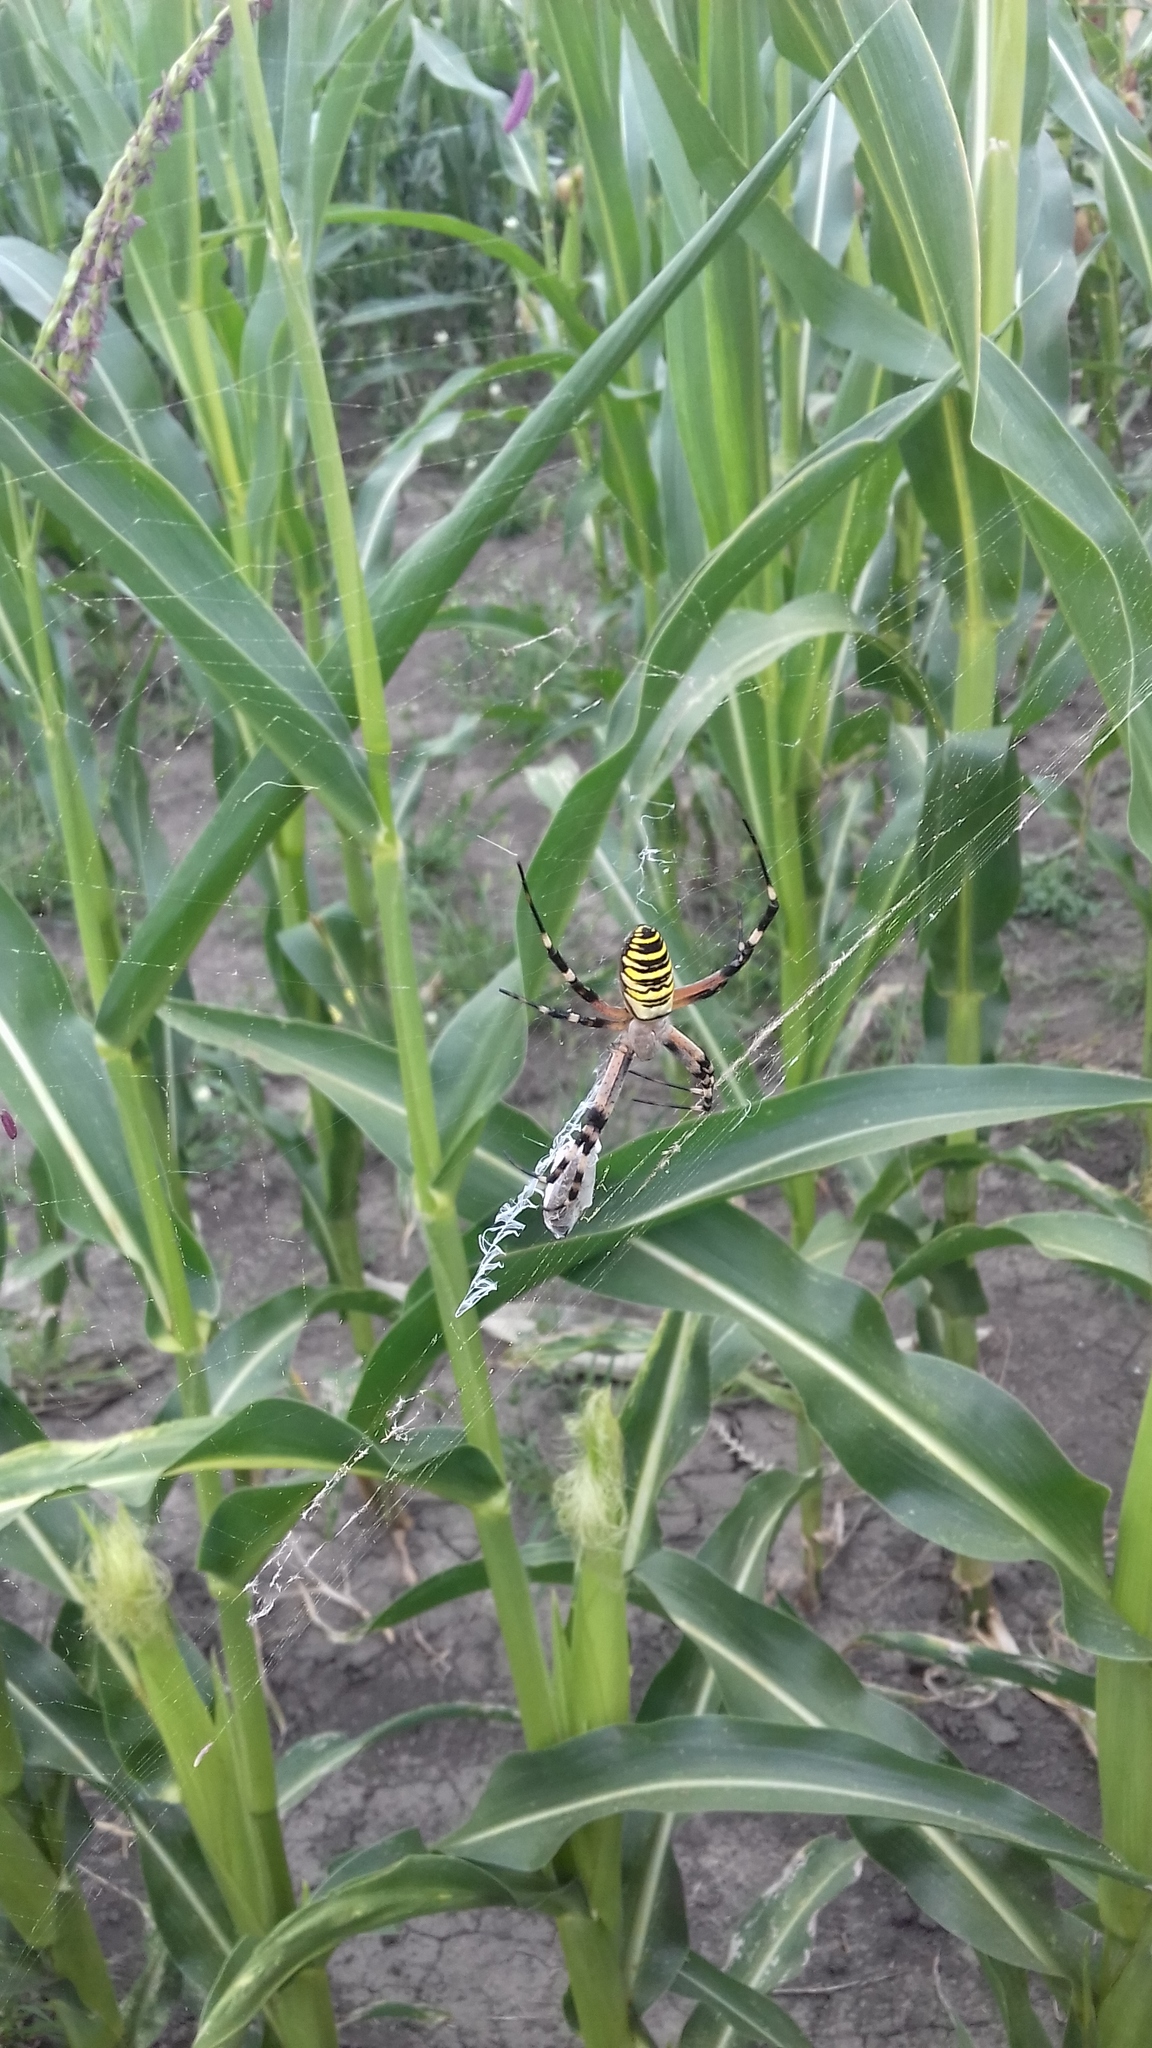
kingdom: Animalia
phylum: Arthropoda
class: Arachnida
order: Araneae
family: Araneidae
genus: Argiope
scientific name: Argiope bruennichi
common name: Wasp spider
